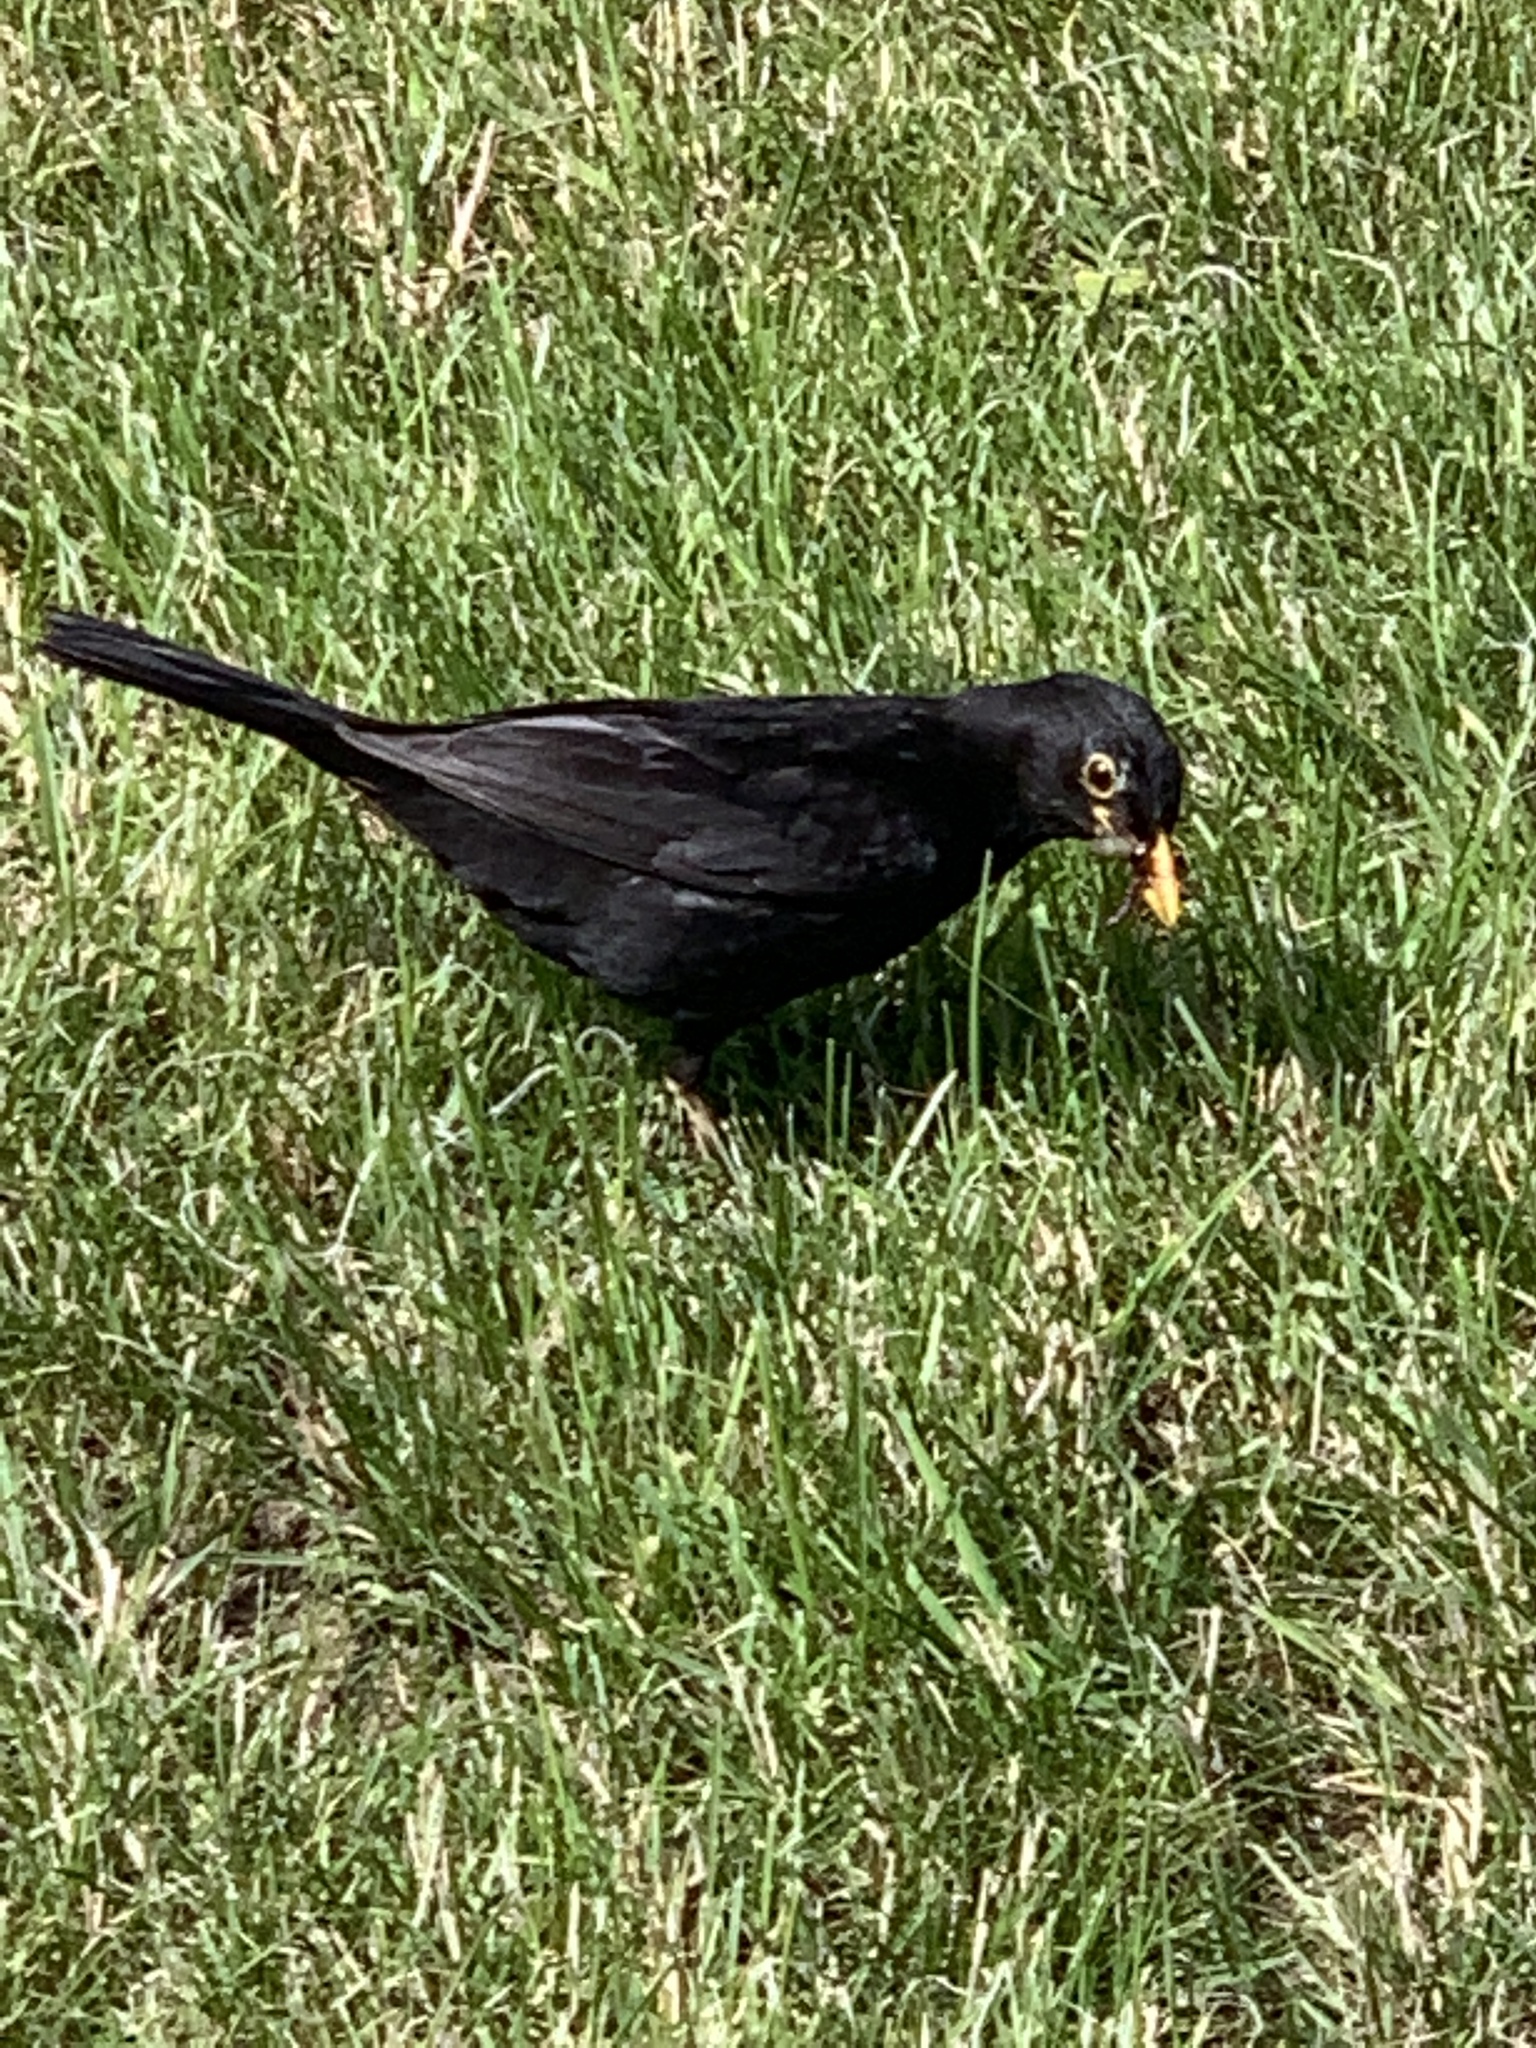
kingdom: Animalia
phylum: Chordata
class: Aves
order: Passeriformes
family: Turdidae
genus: Turdus
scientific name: Turdus merula
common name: Common blackbird
